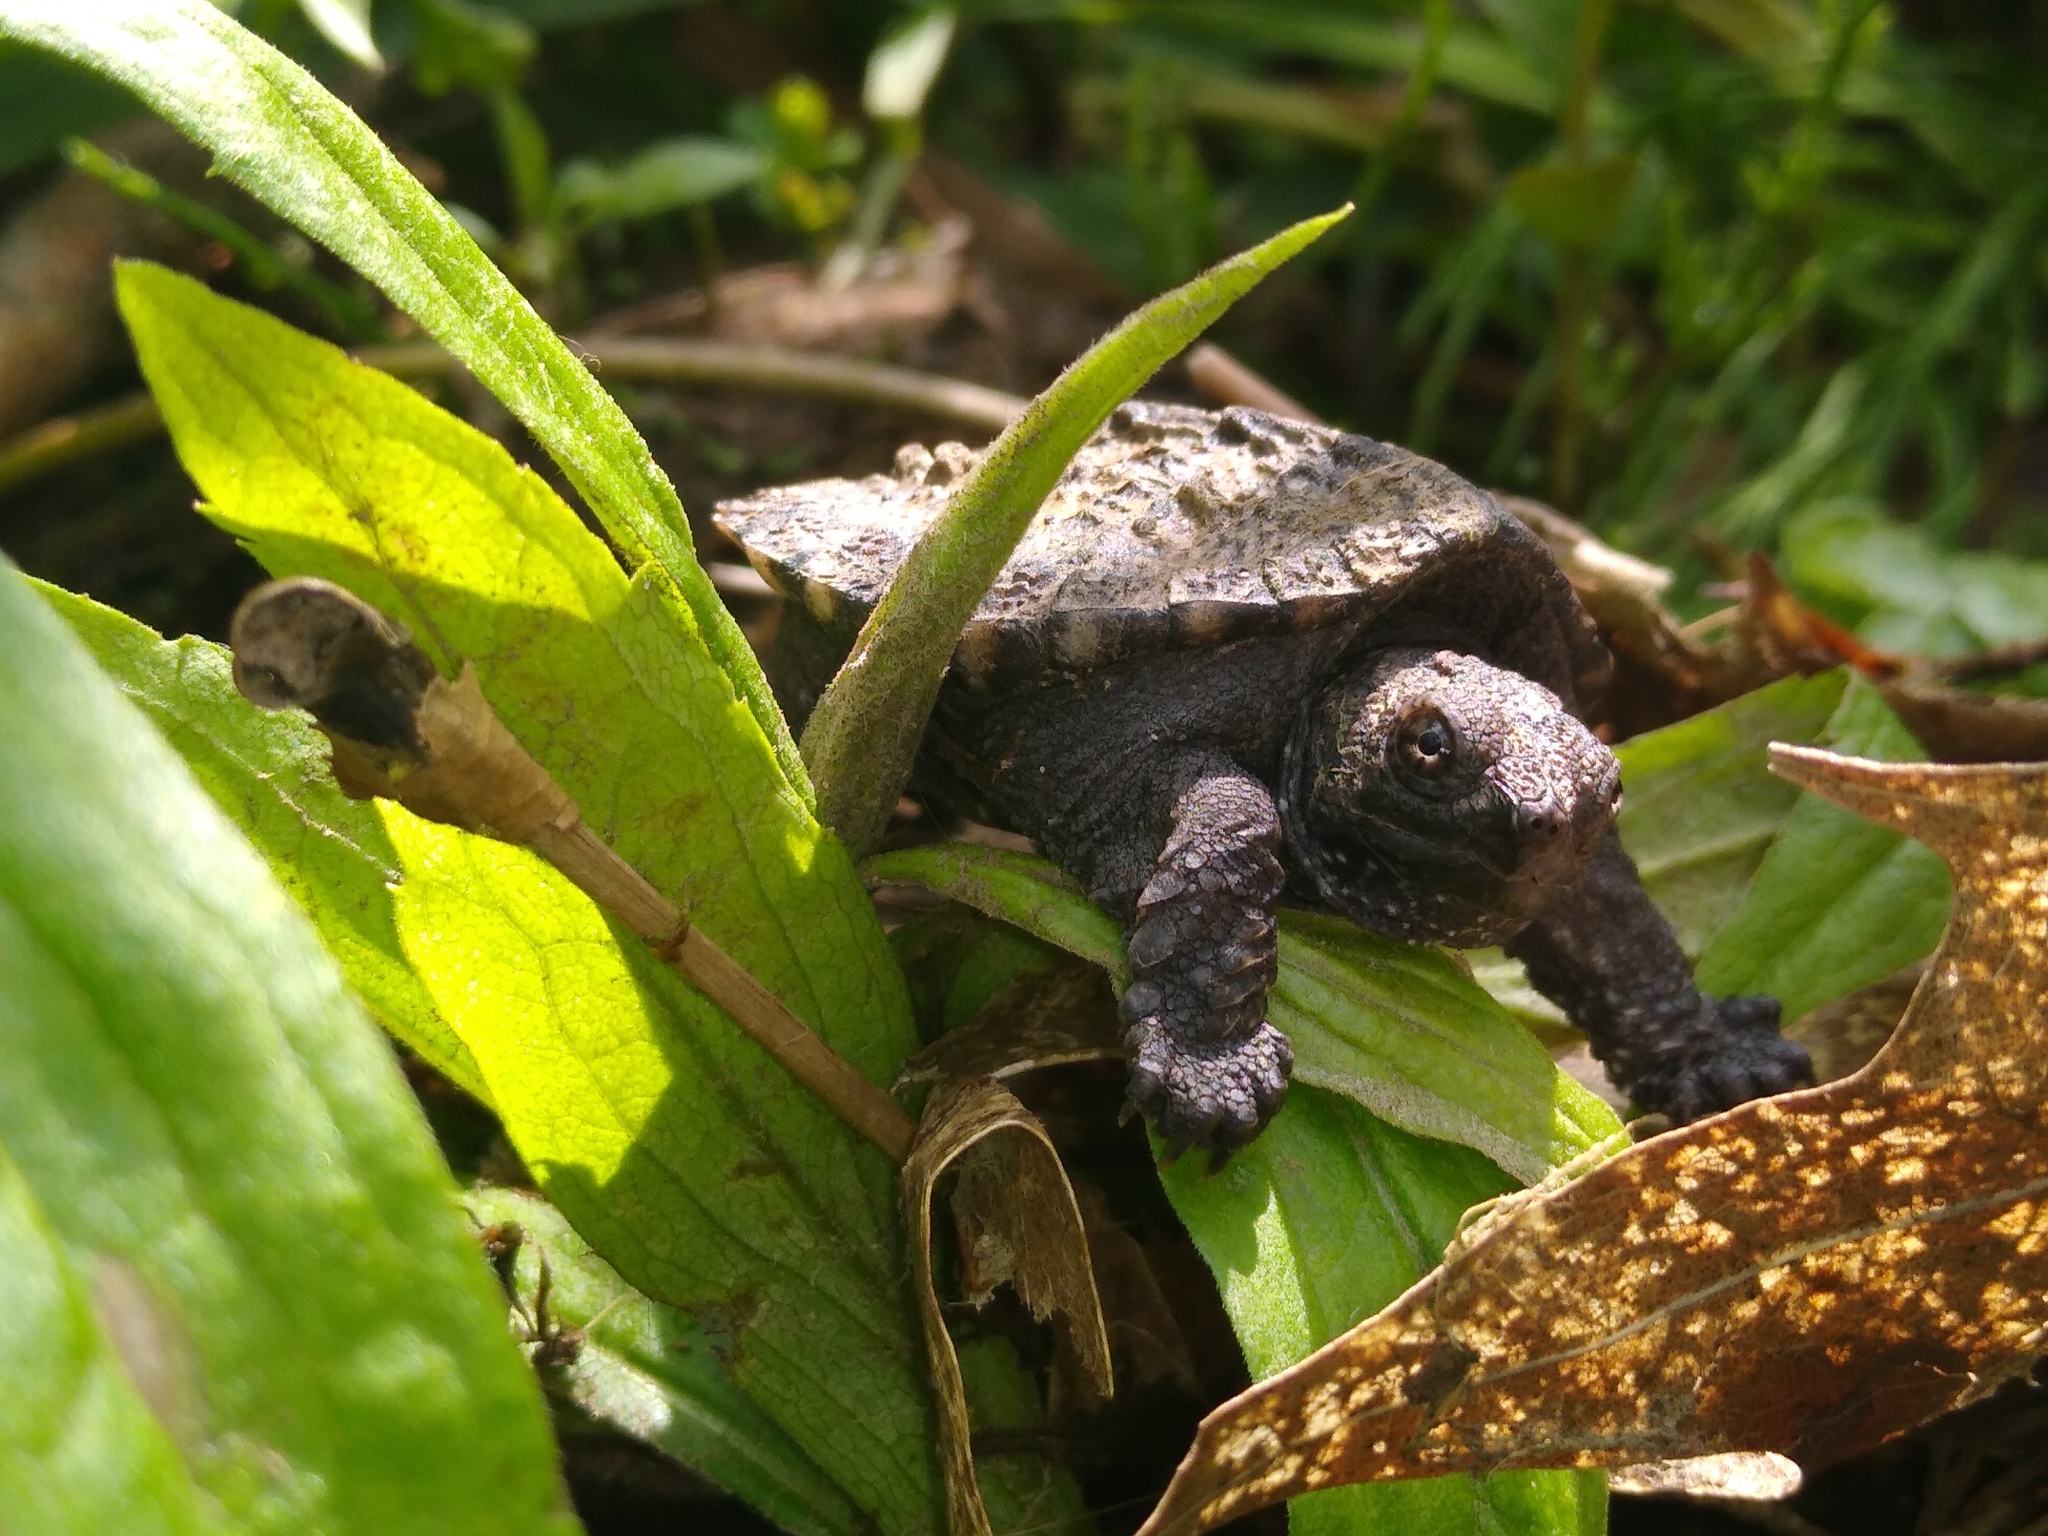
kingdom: Animalia
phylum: Chordata
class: Testudines
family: Chelydridae
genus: Chelydra
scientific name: Chelydra serpentina
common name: Common snapping turtle
